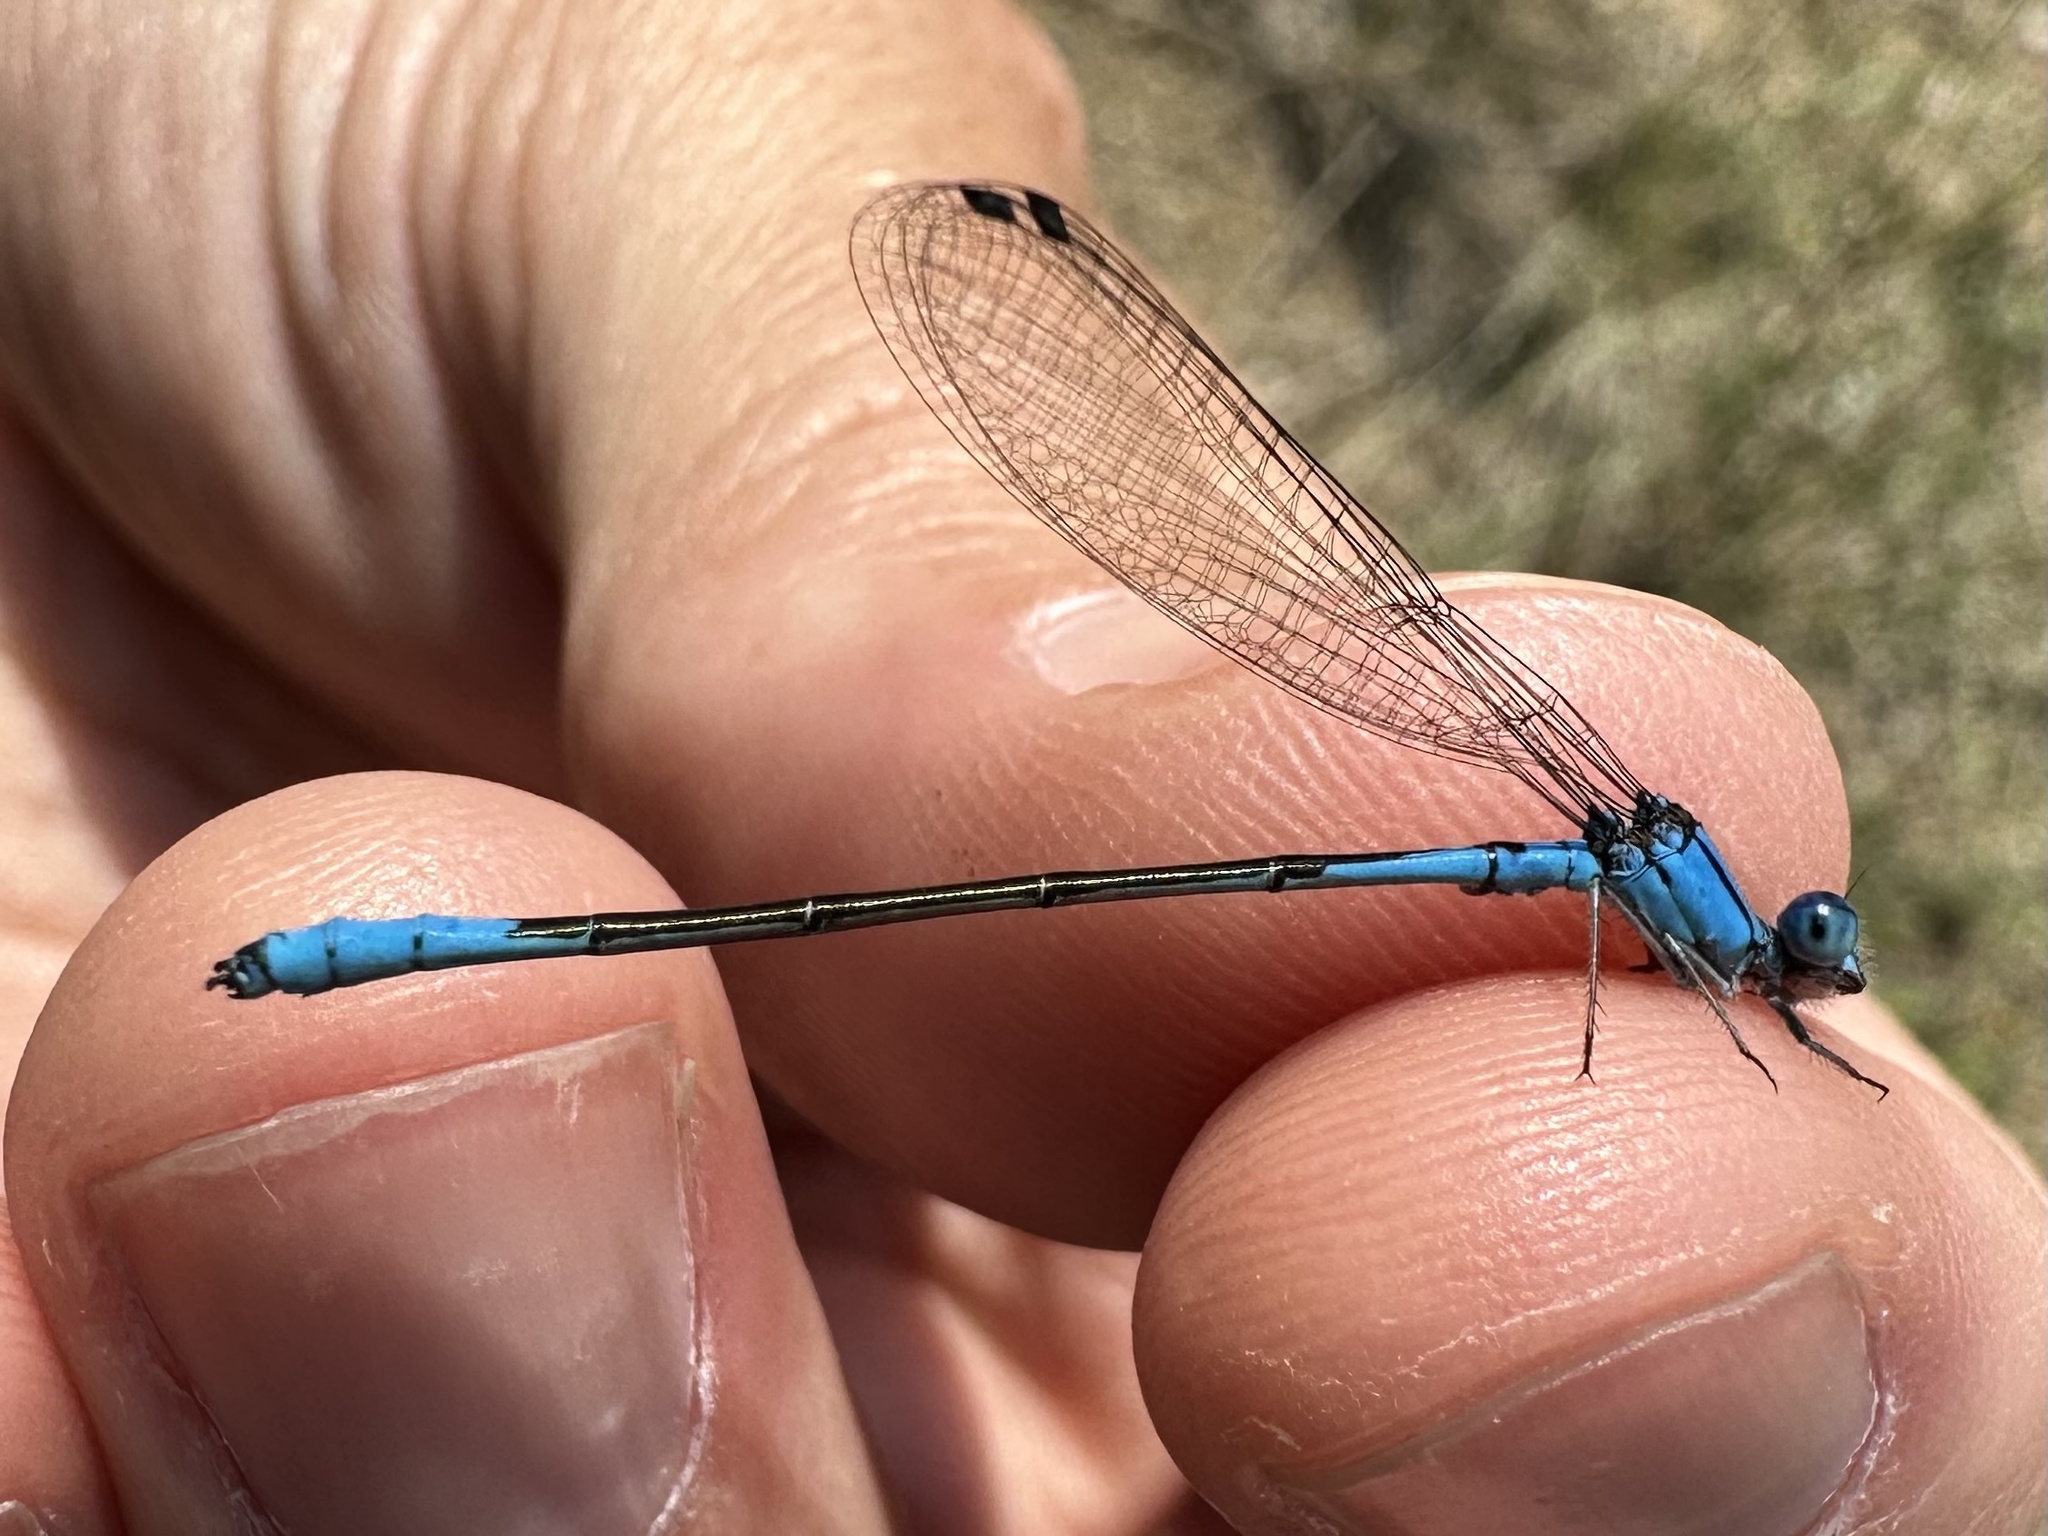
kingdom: Animalia
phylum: Arthropoda
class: Insecta
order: Odonata
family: Coenagrionidae
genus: Enallagma
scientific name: Enallagma aspersum
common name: Azure bluet
